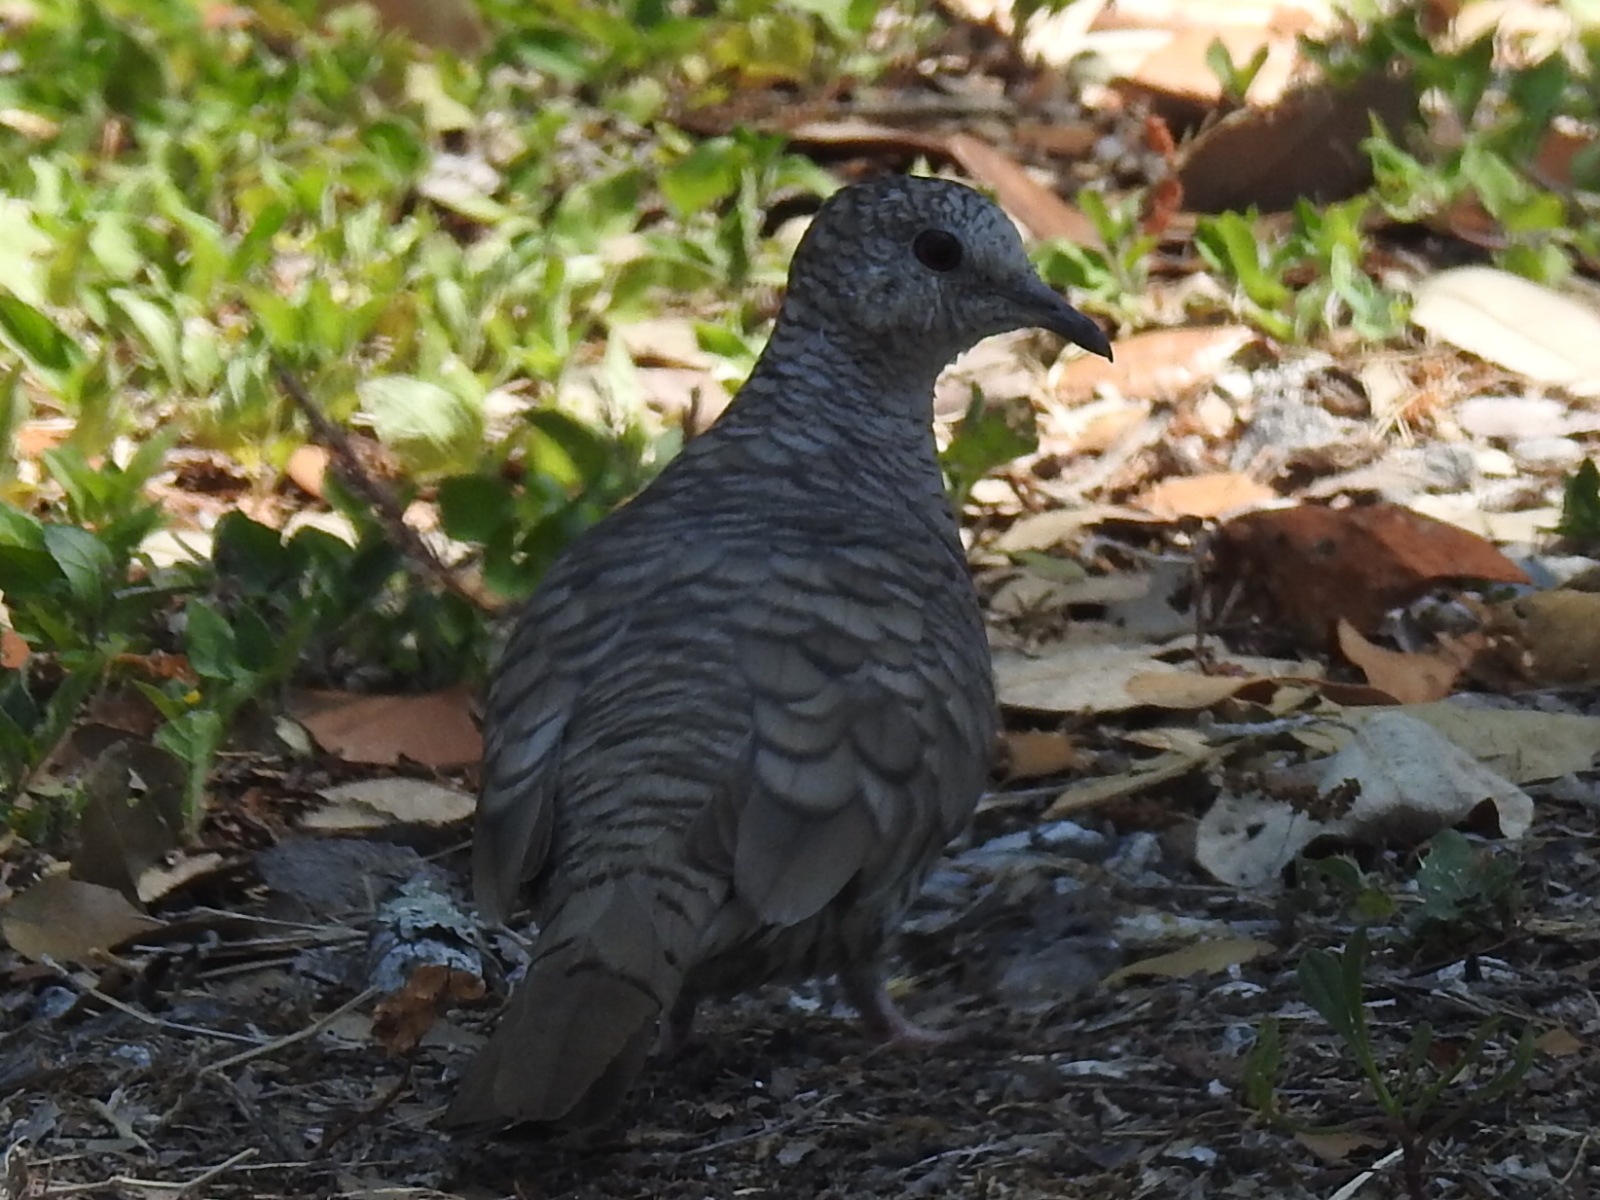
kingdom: Animalia
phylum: Chordata
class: Aves
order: Columbiformes
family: Columbidae
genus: Columbina
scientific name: Columbina inca
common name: Inca dove
